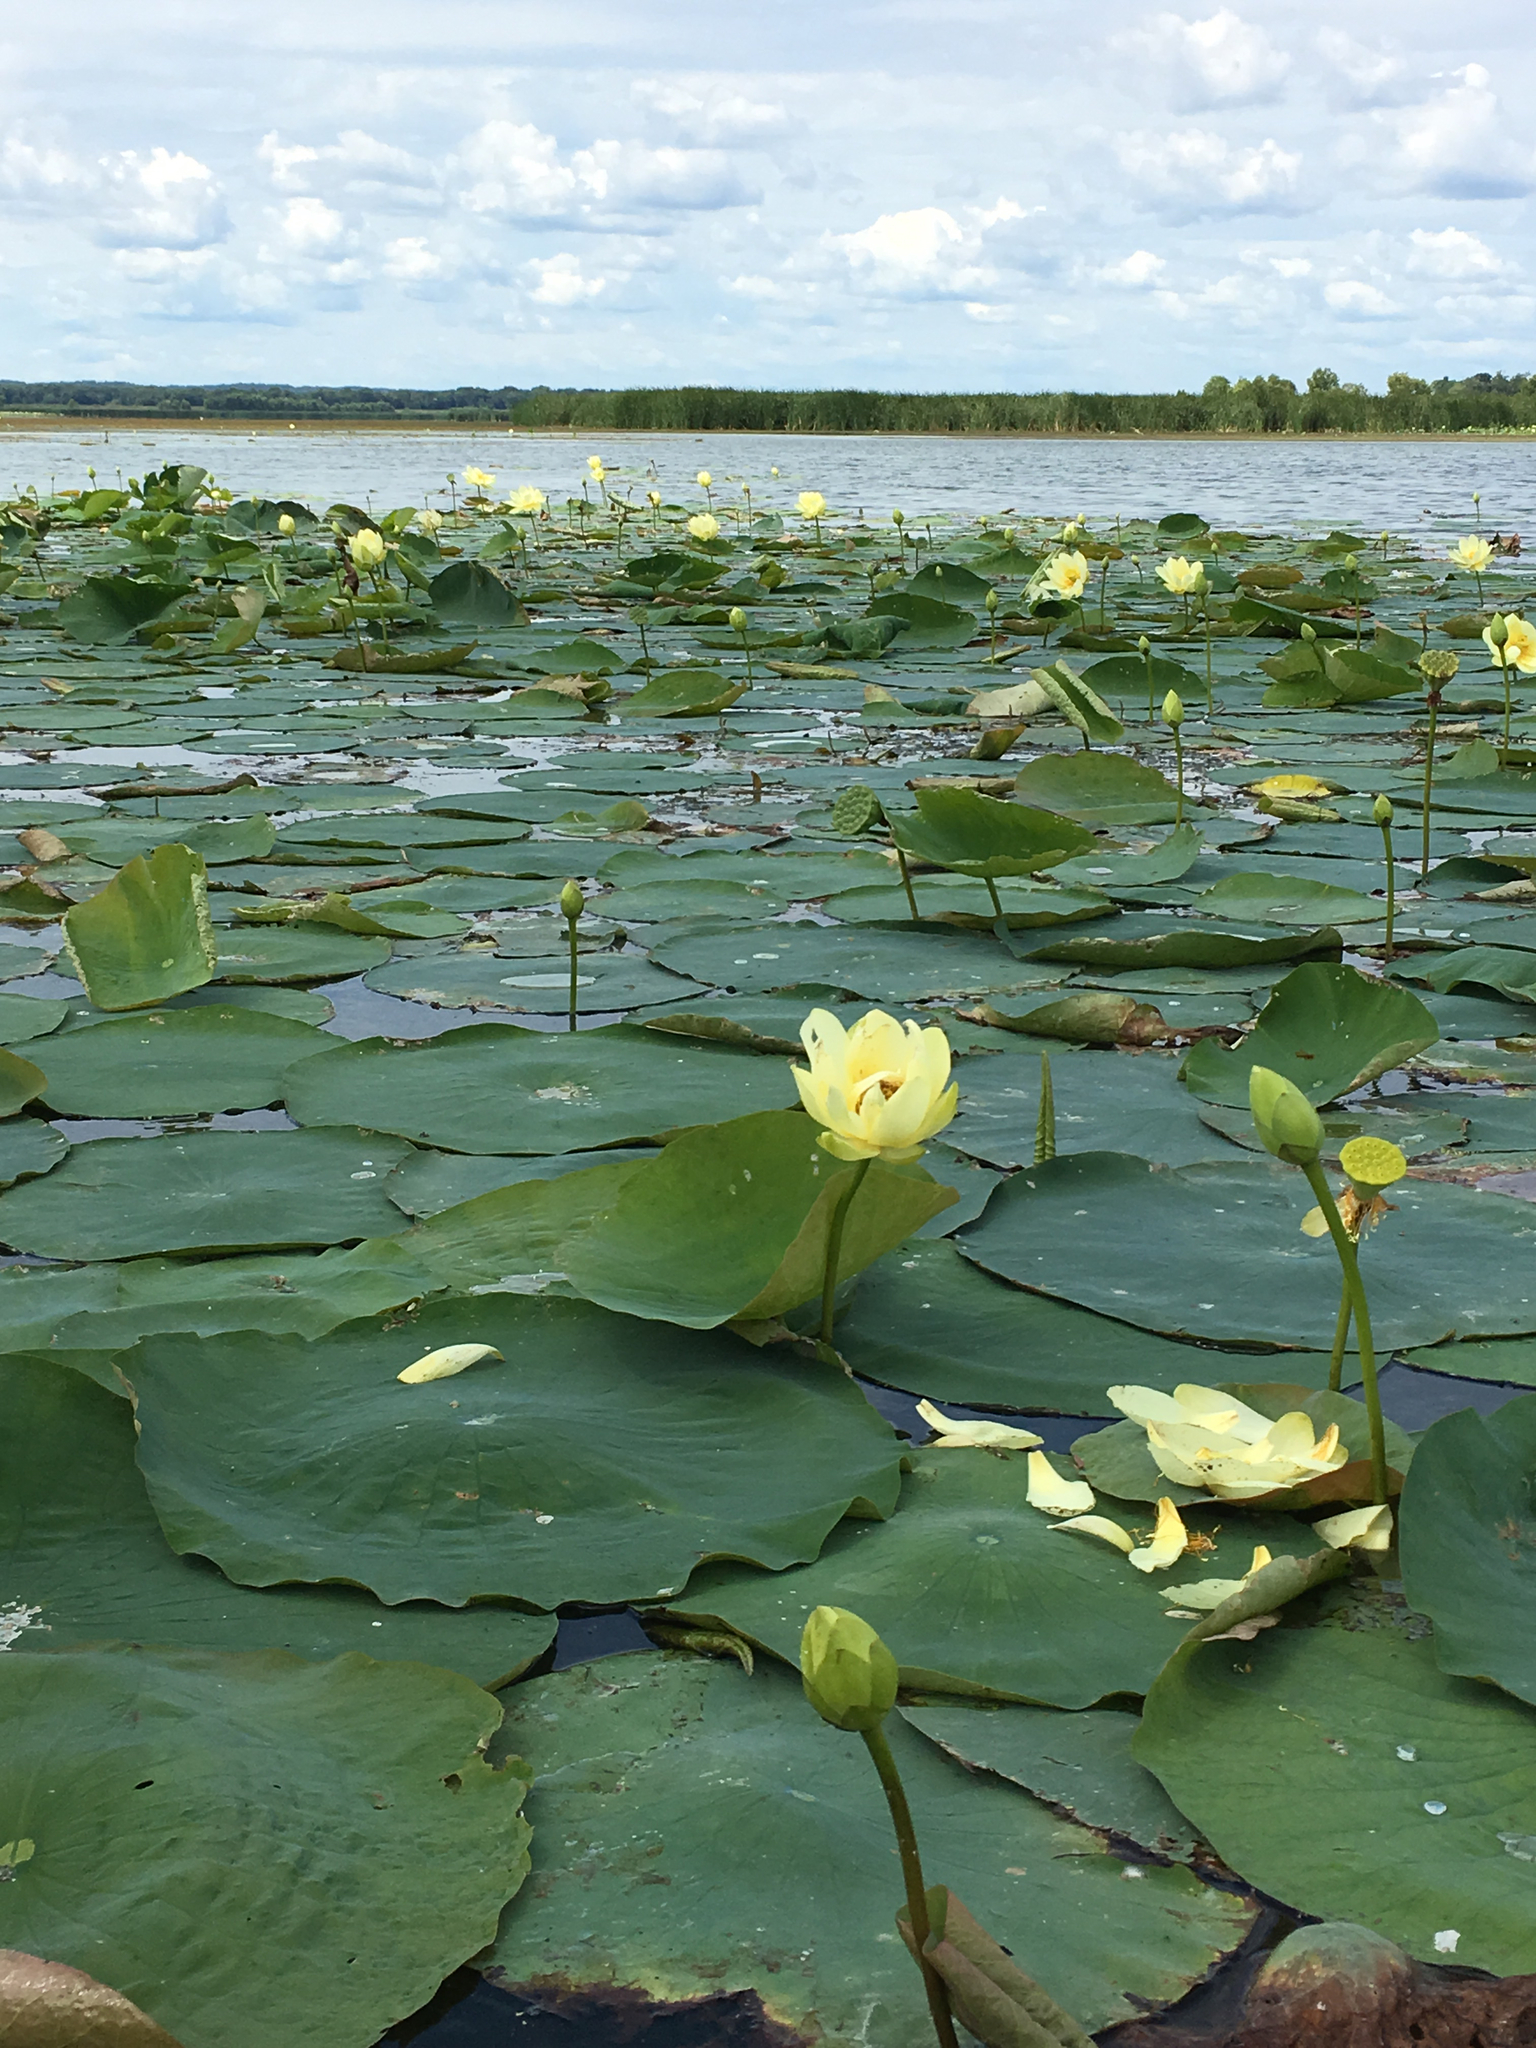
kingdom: Plantae
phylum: Tracheophyta
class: Magnoliopsida
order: Proteales
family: Nelumbonaceae
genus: Nelumbo
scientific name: Nelumbo lutea
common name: American lotus
